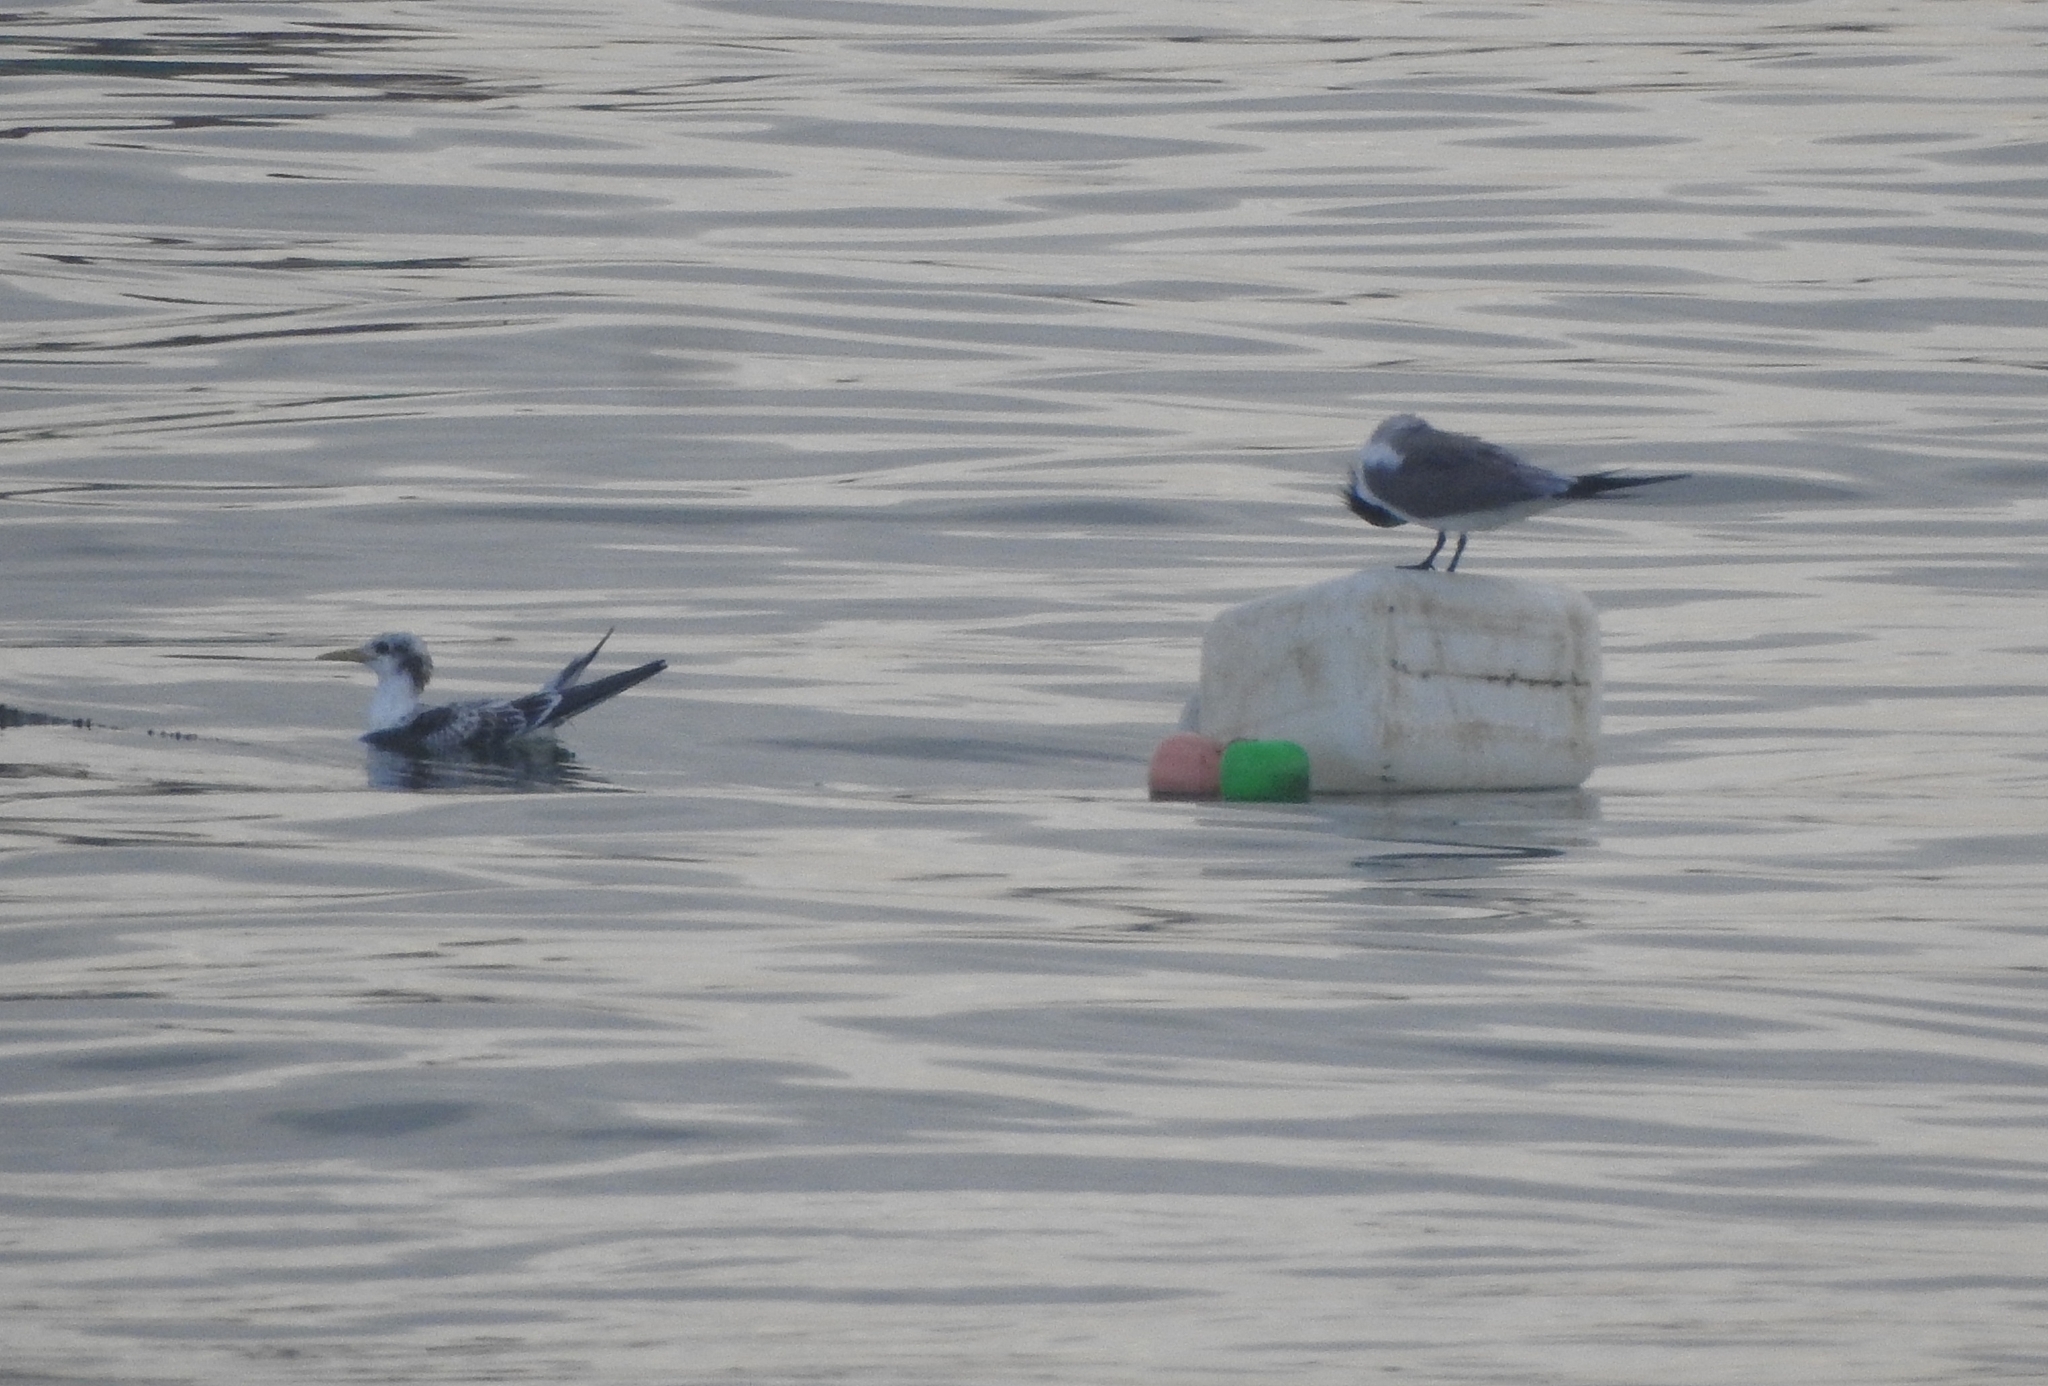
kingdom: Animalia
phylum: Chordata
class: Aves
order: Charadriiformes
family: Laridae
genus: Thalasseus
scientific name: Thalasseus bergii
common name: Greater crested tern
